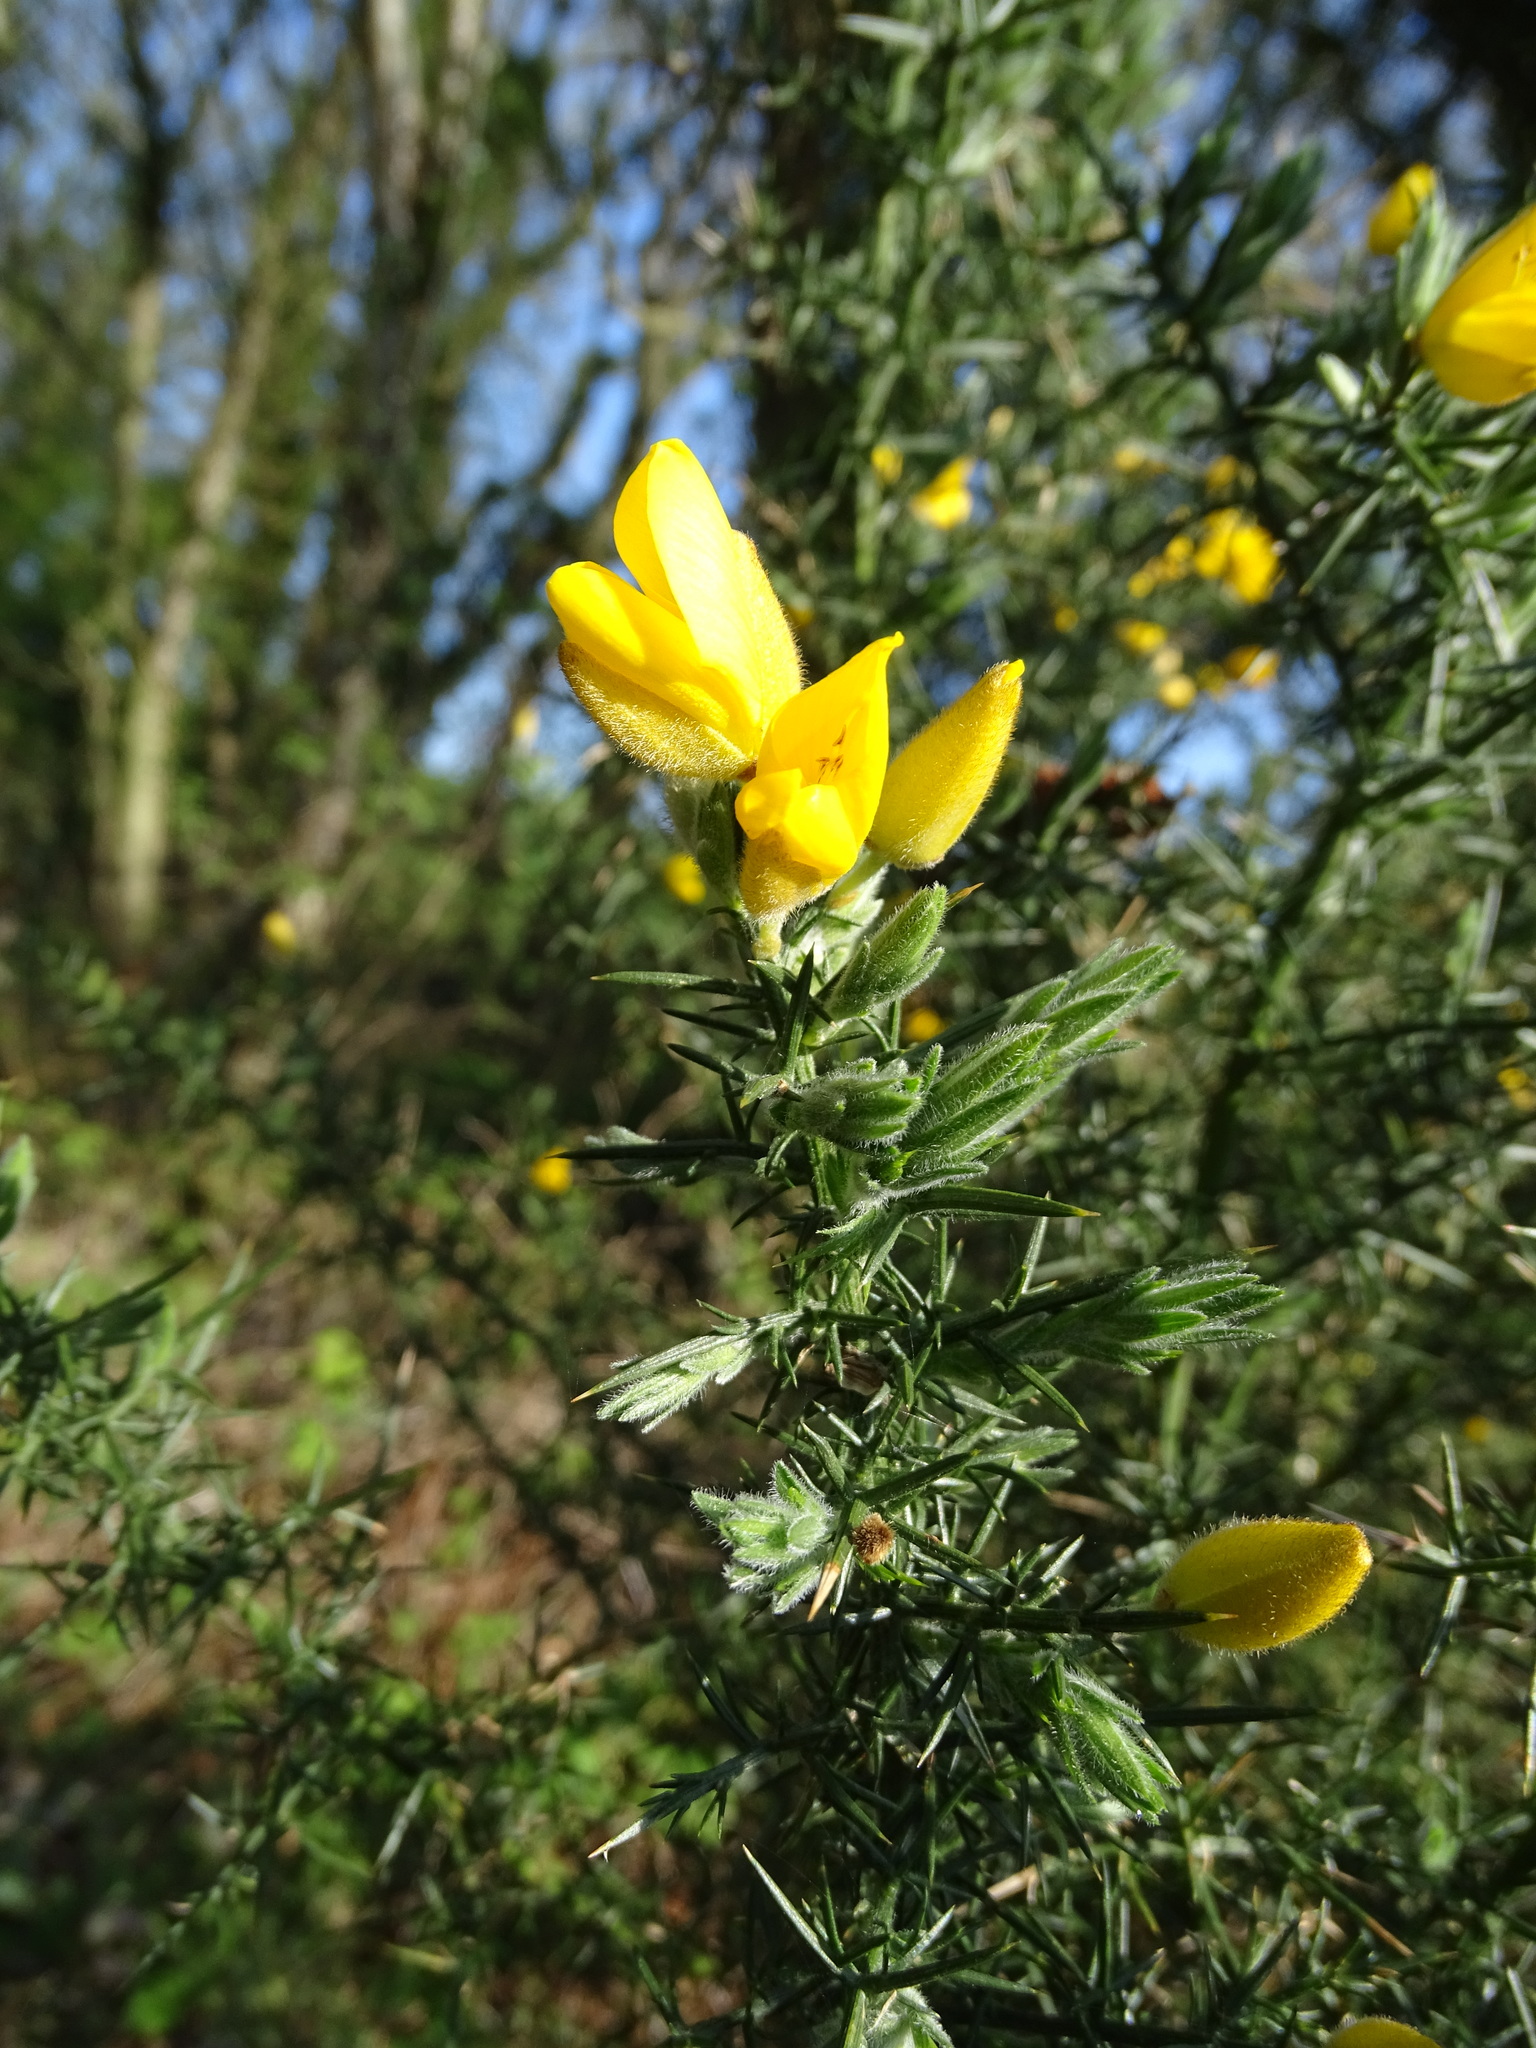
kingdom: Plantae
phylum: Tracheophyta
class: Magnoliopsida
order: Fabales
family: Fabaceae
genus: Ulex
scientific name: Ulex europaeus
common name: Common gorse
